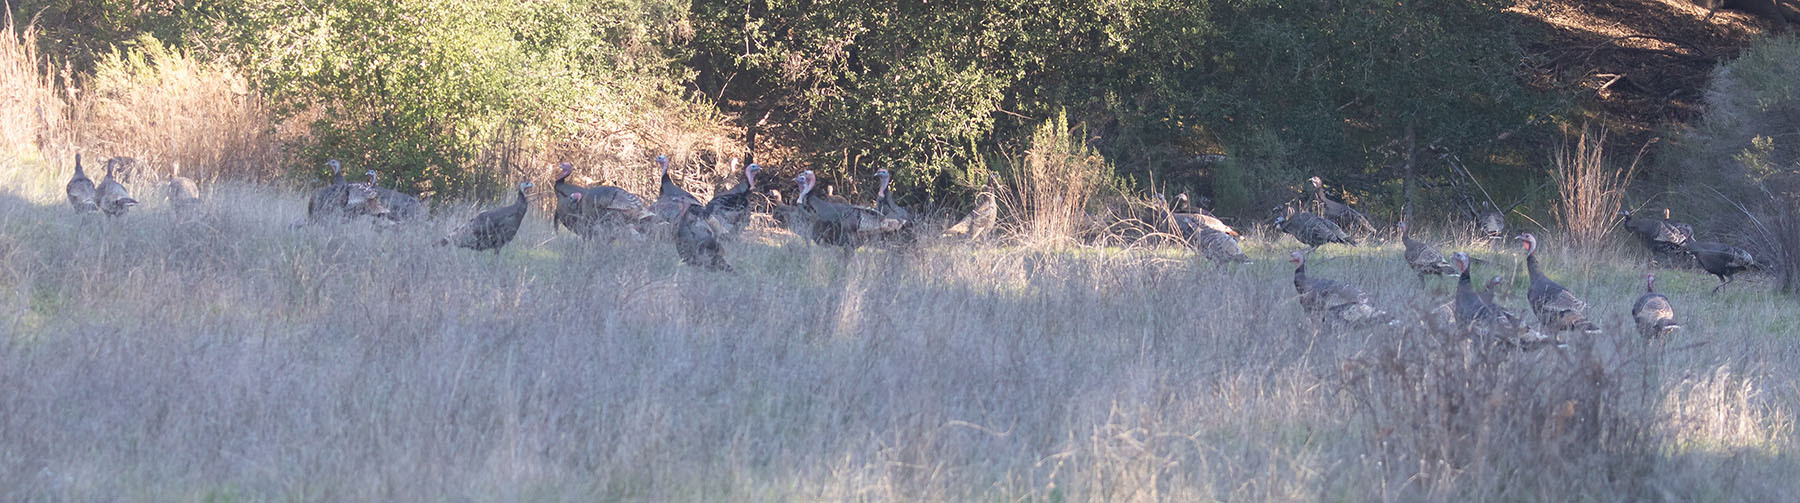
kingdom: Animalia
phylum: Chordata
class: Aves
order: Galliformes
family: Phasianidae
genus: Meleagris
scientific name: Meleagris gallopavo
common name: Wild turkey
